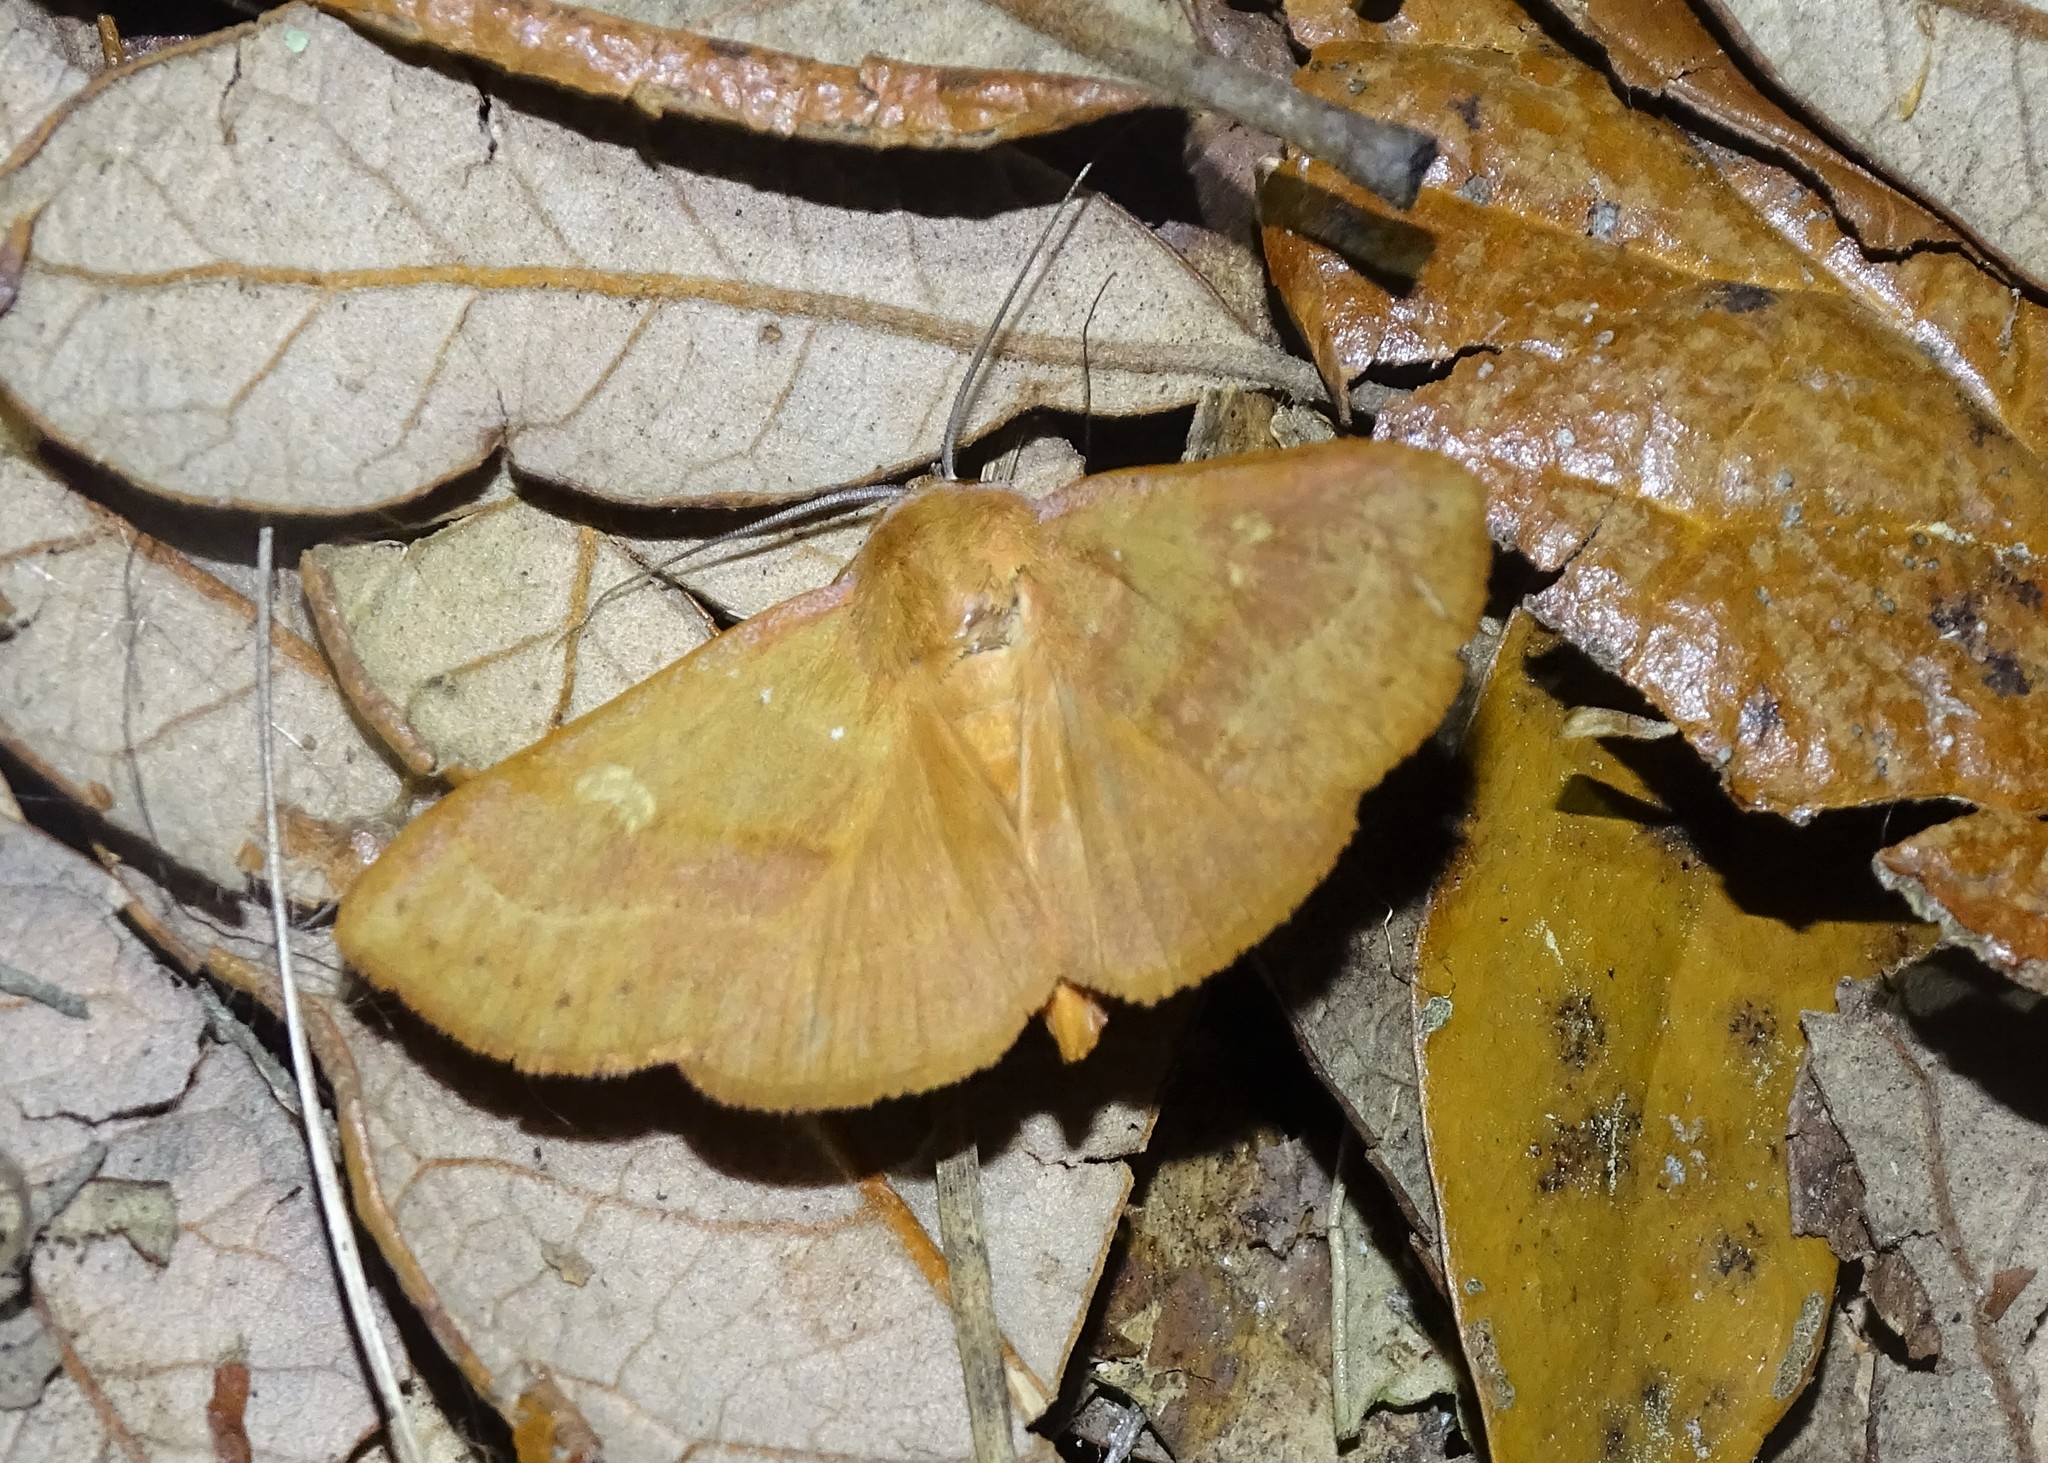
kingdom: Animalia
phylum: Arthropoda
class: Insecta
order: Lepidoptera
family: Erebidae
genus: Panopoda
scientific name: Panopoda repanda
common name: Orange panopoda
